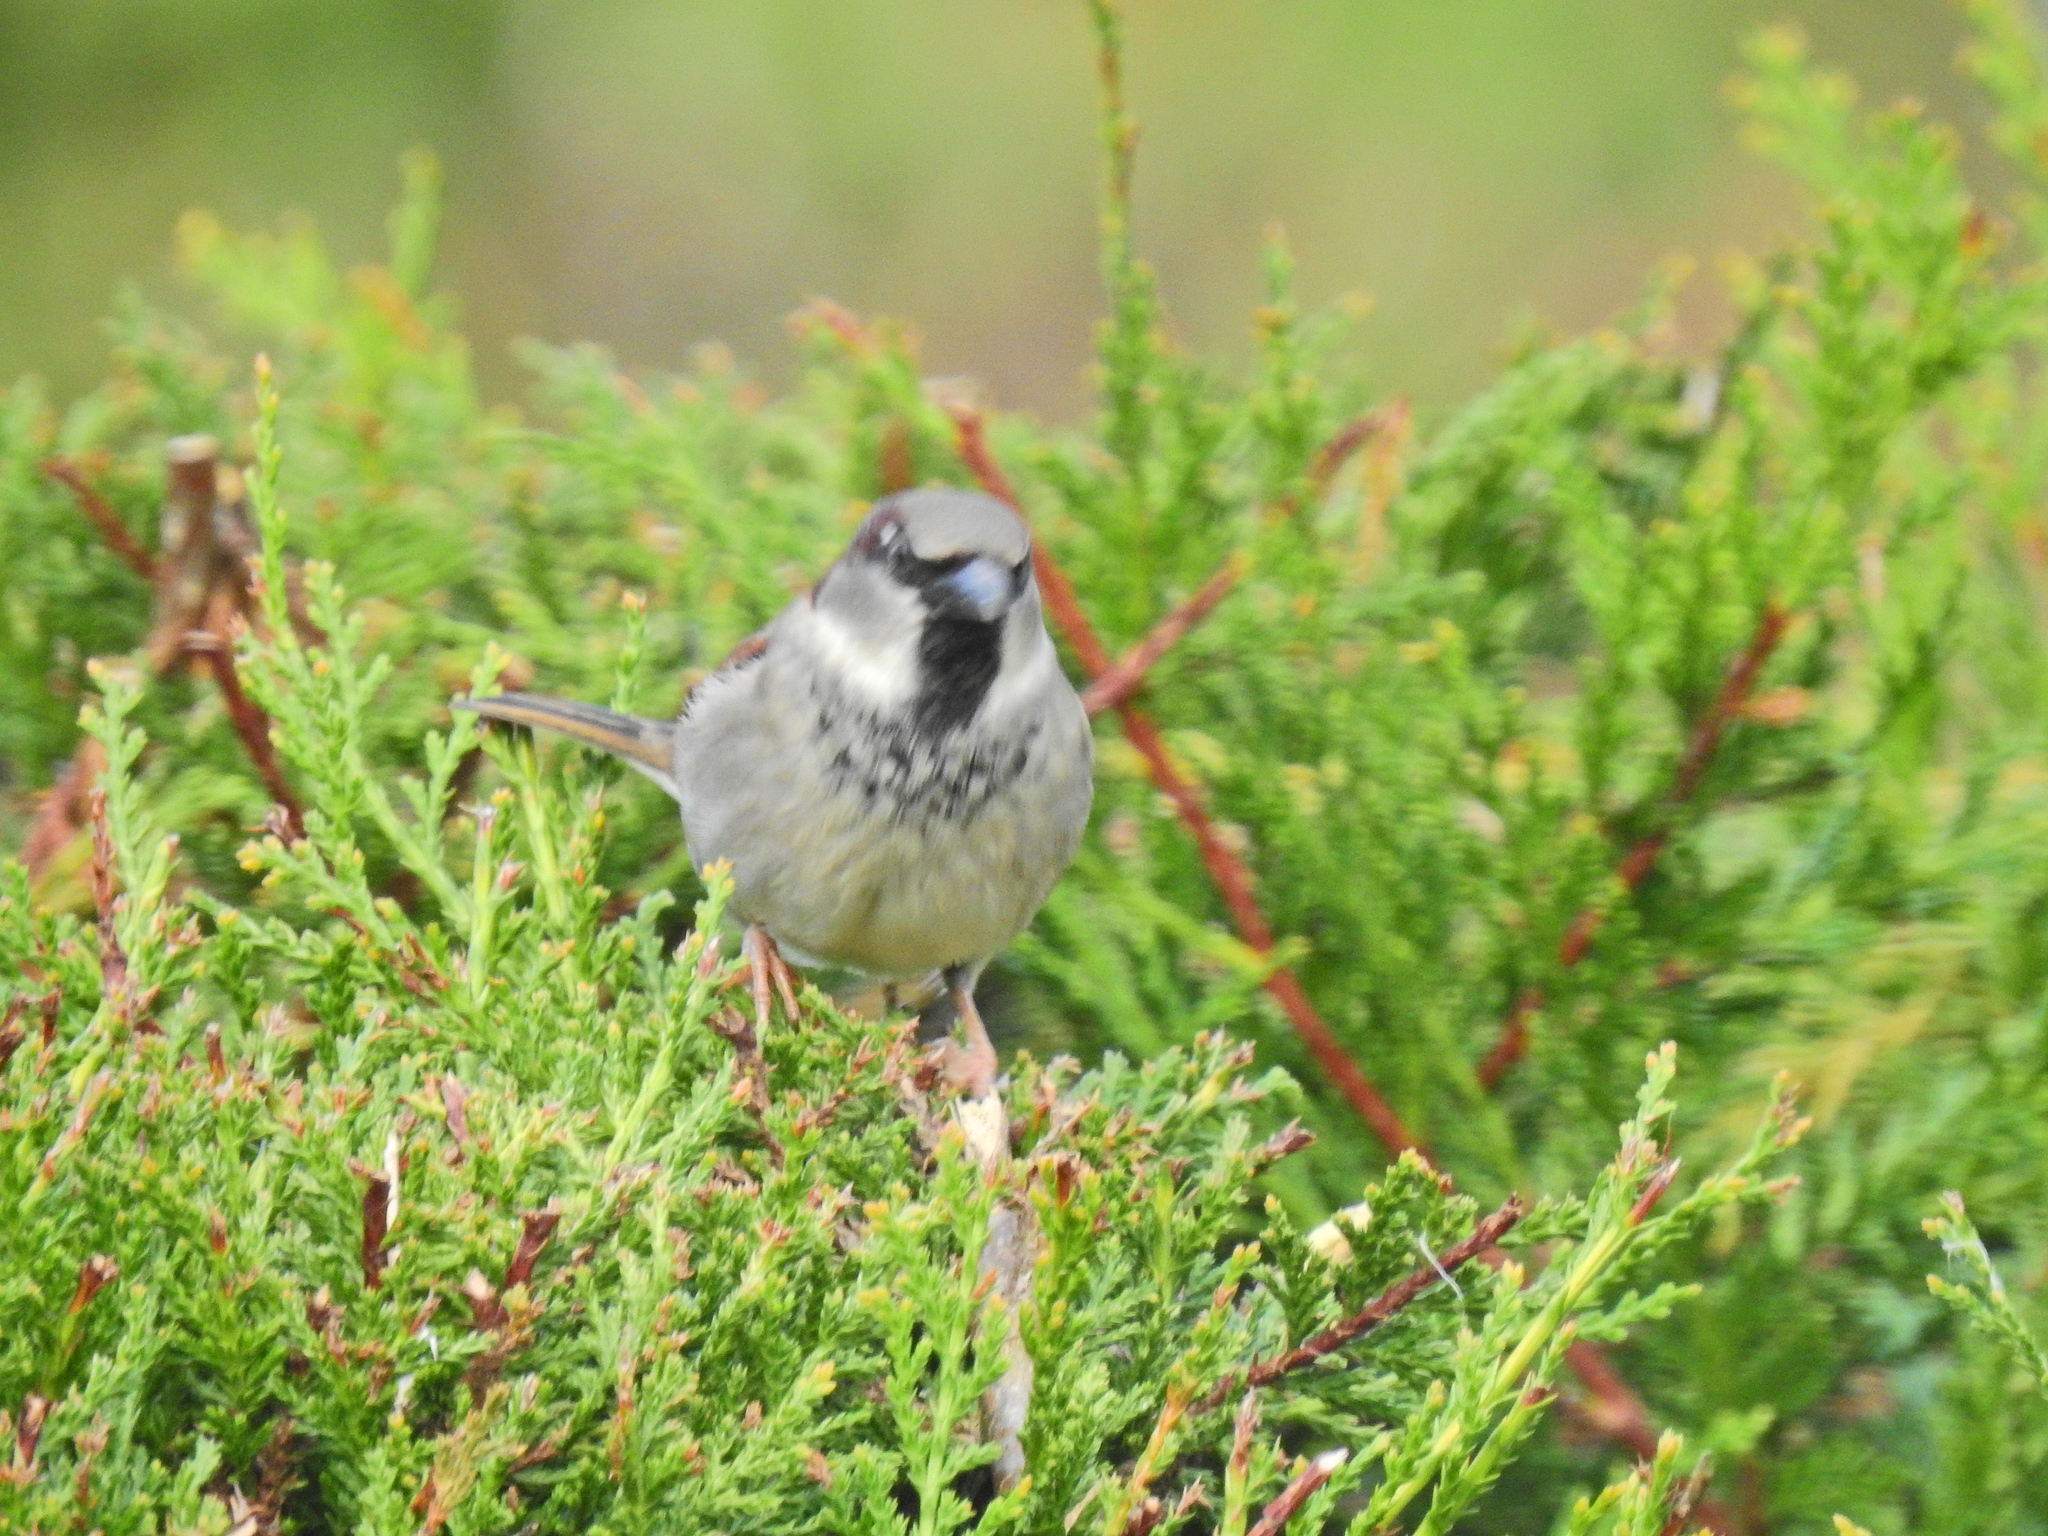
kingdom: Animalia
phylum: Chordata
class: Aves
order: Passeriformes
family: Passeridae
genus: Passer
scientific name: Passer domesticus
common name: House sparrow
